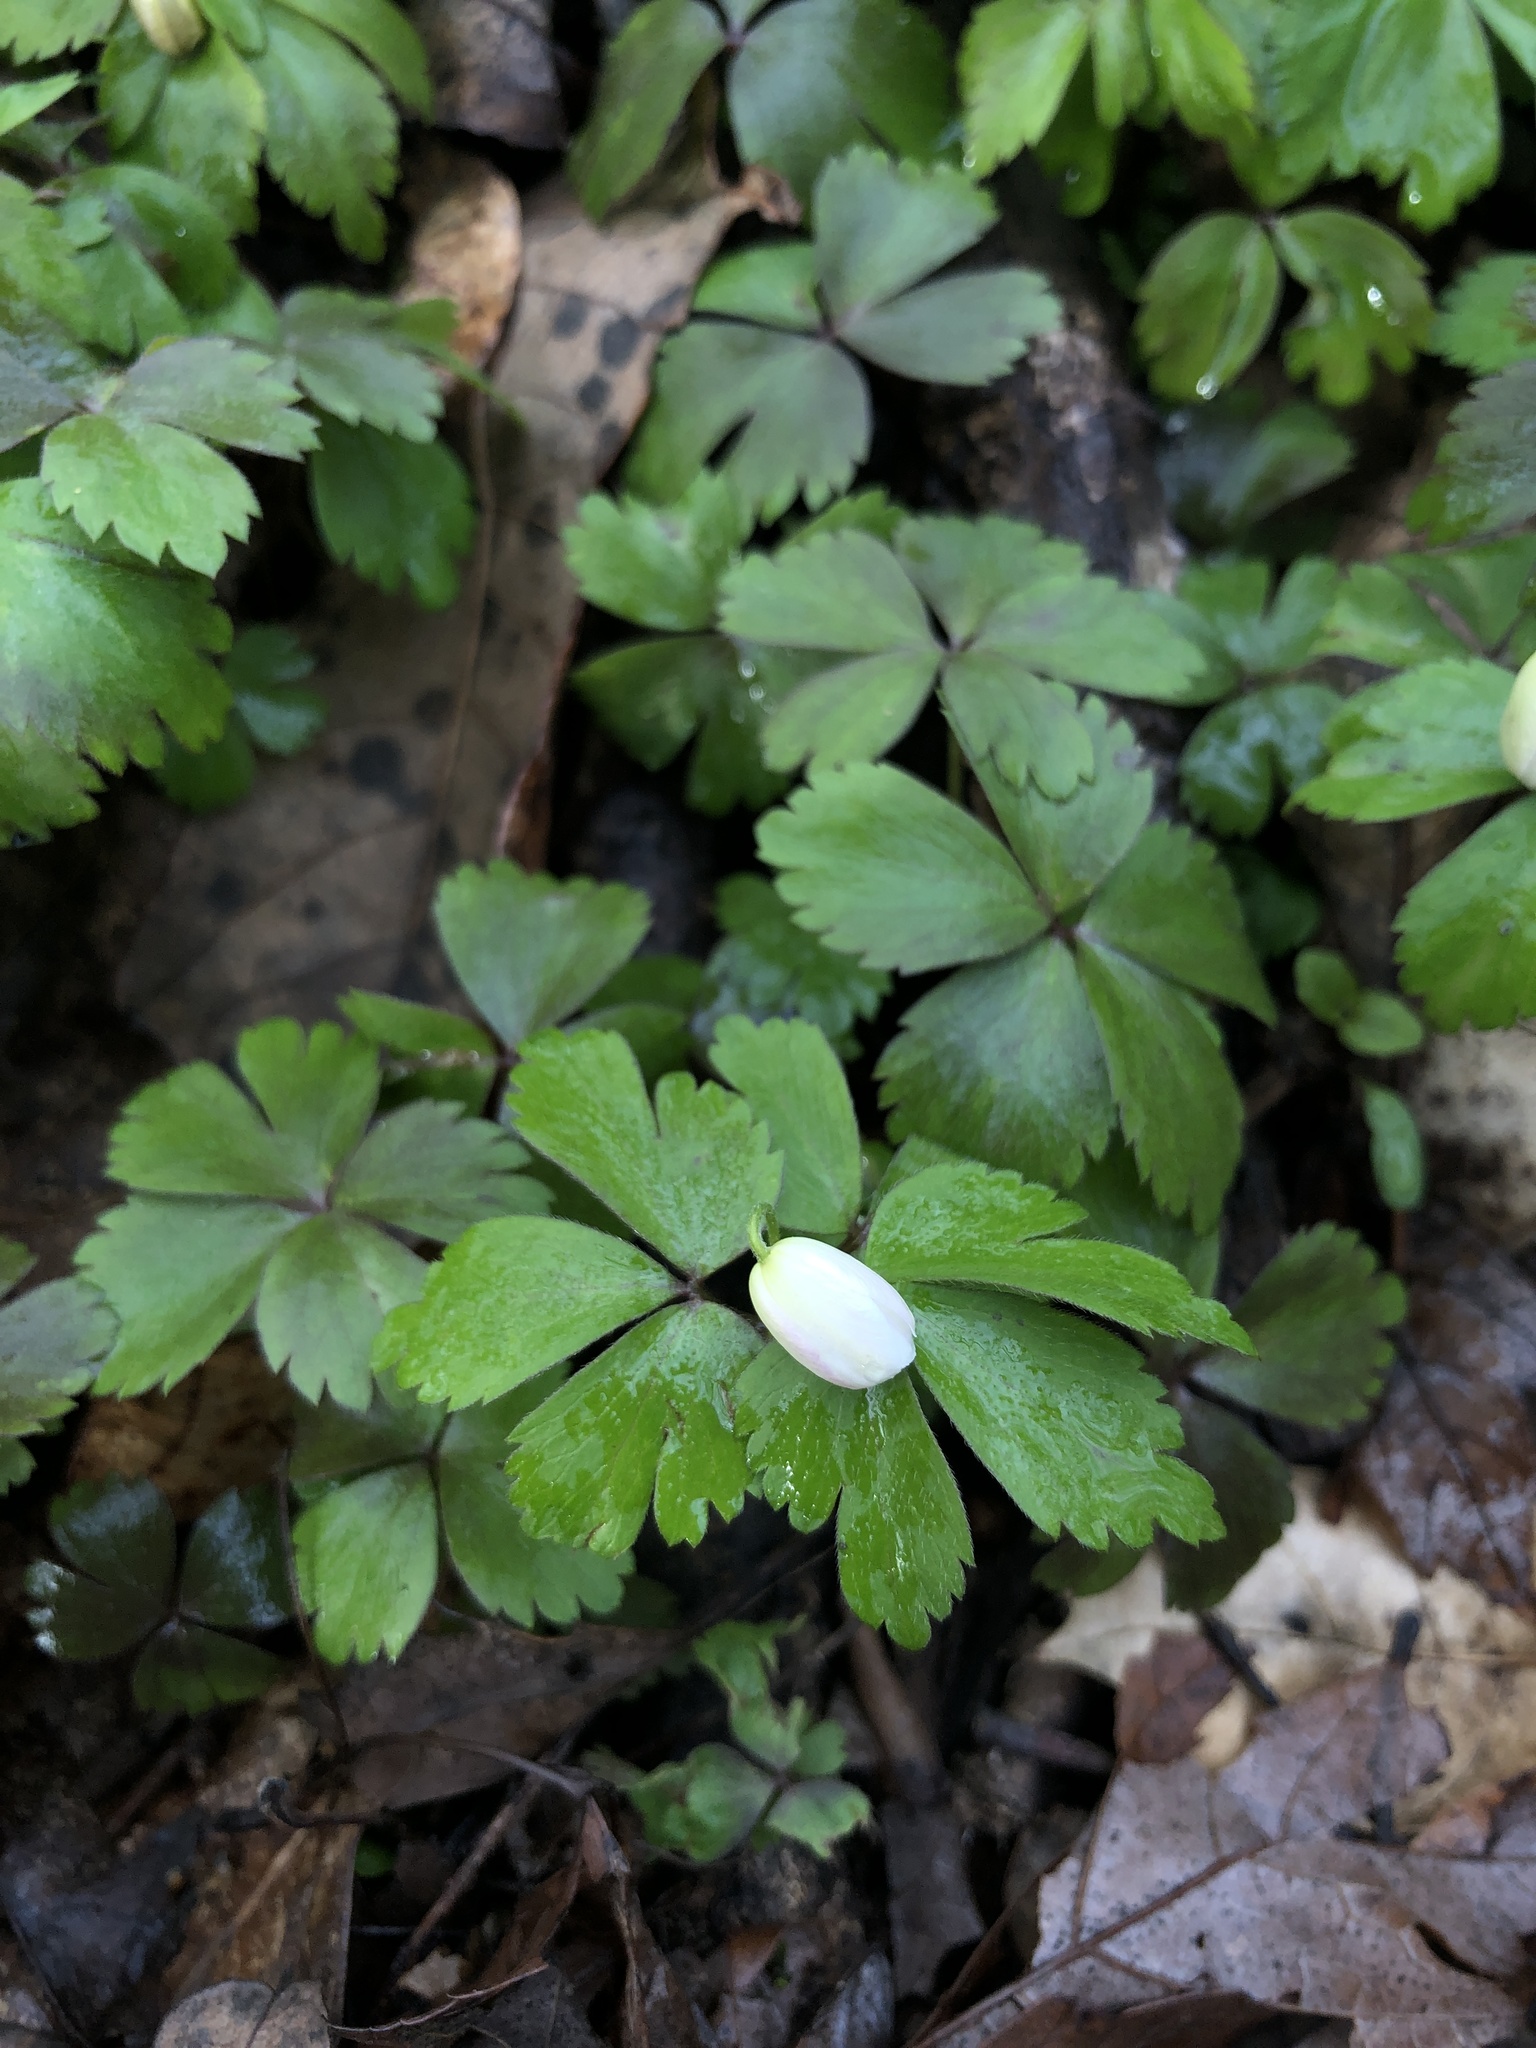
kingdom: Plantae
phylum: Tracheophyta
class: Magnoliopsida
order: Ranunculales
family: Ranunculaceae
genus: Anemone
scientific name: Anemone quinquefolia
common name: Wood anemone
